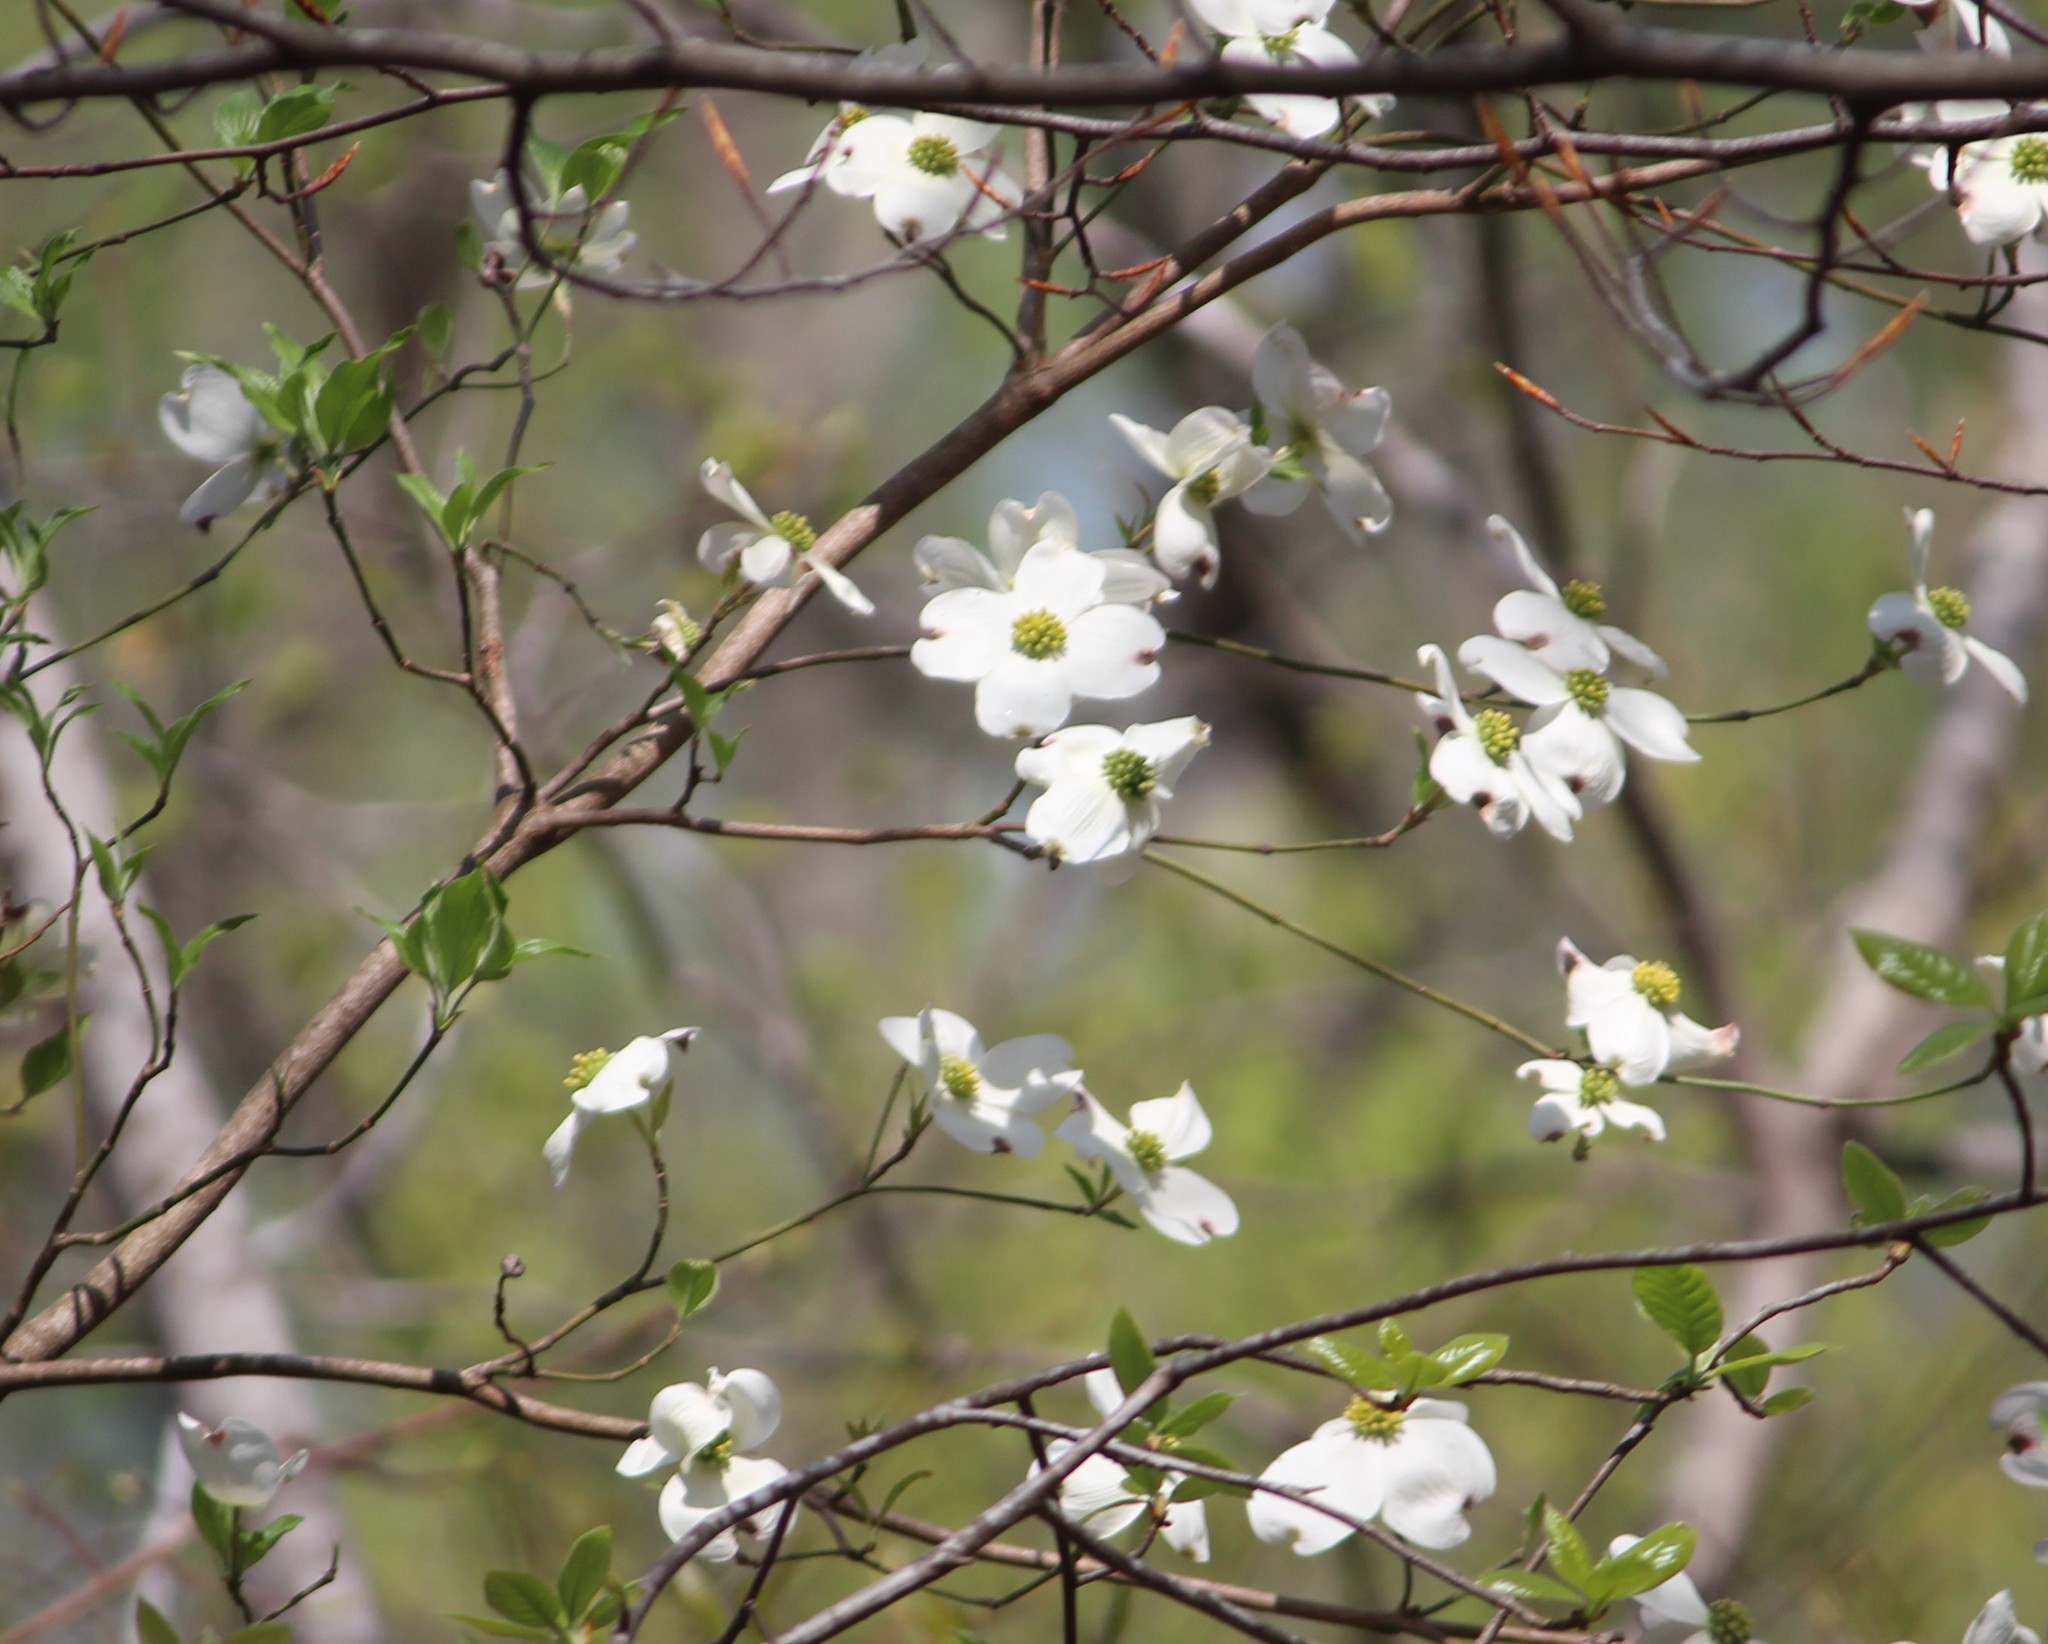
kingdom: Plantae
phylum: Tracheophyta
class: Magnoliopsida
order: Cornales
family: Cornaceae
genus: Cornus
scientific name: Cornus florida
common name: Flowering dogwood
